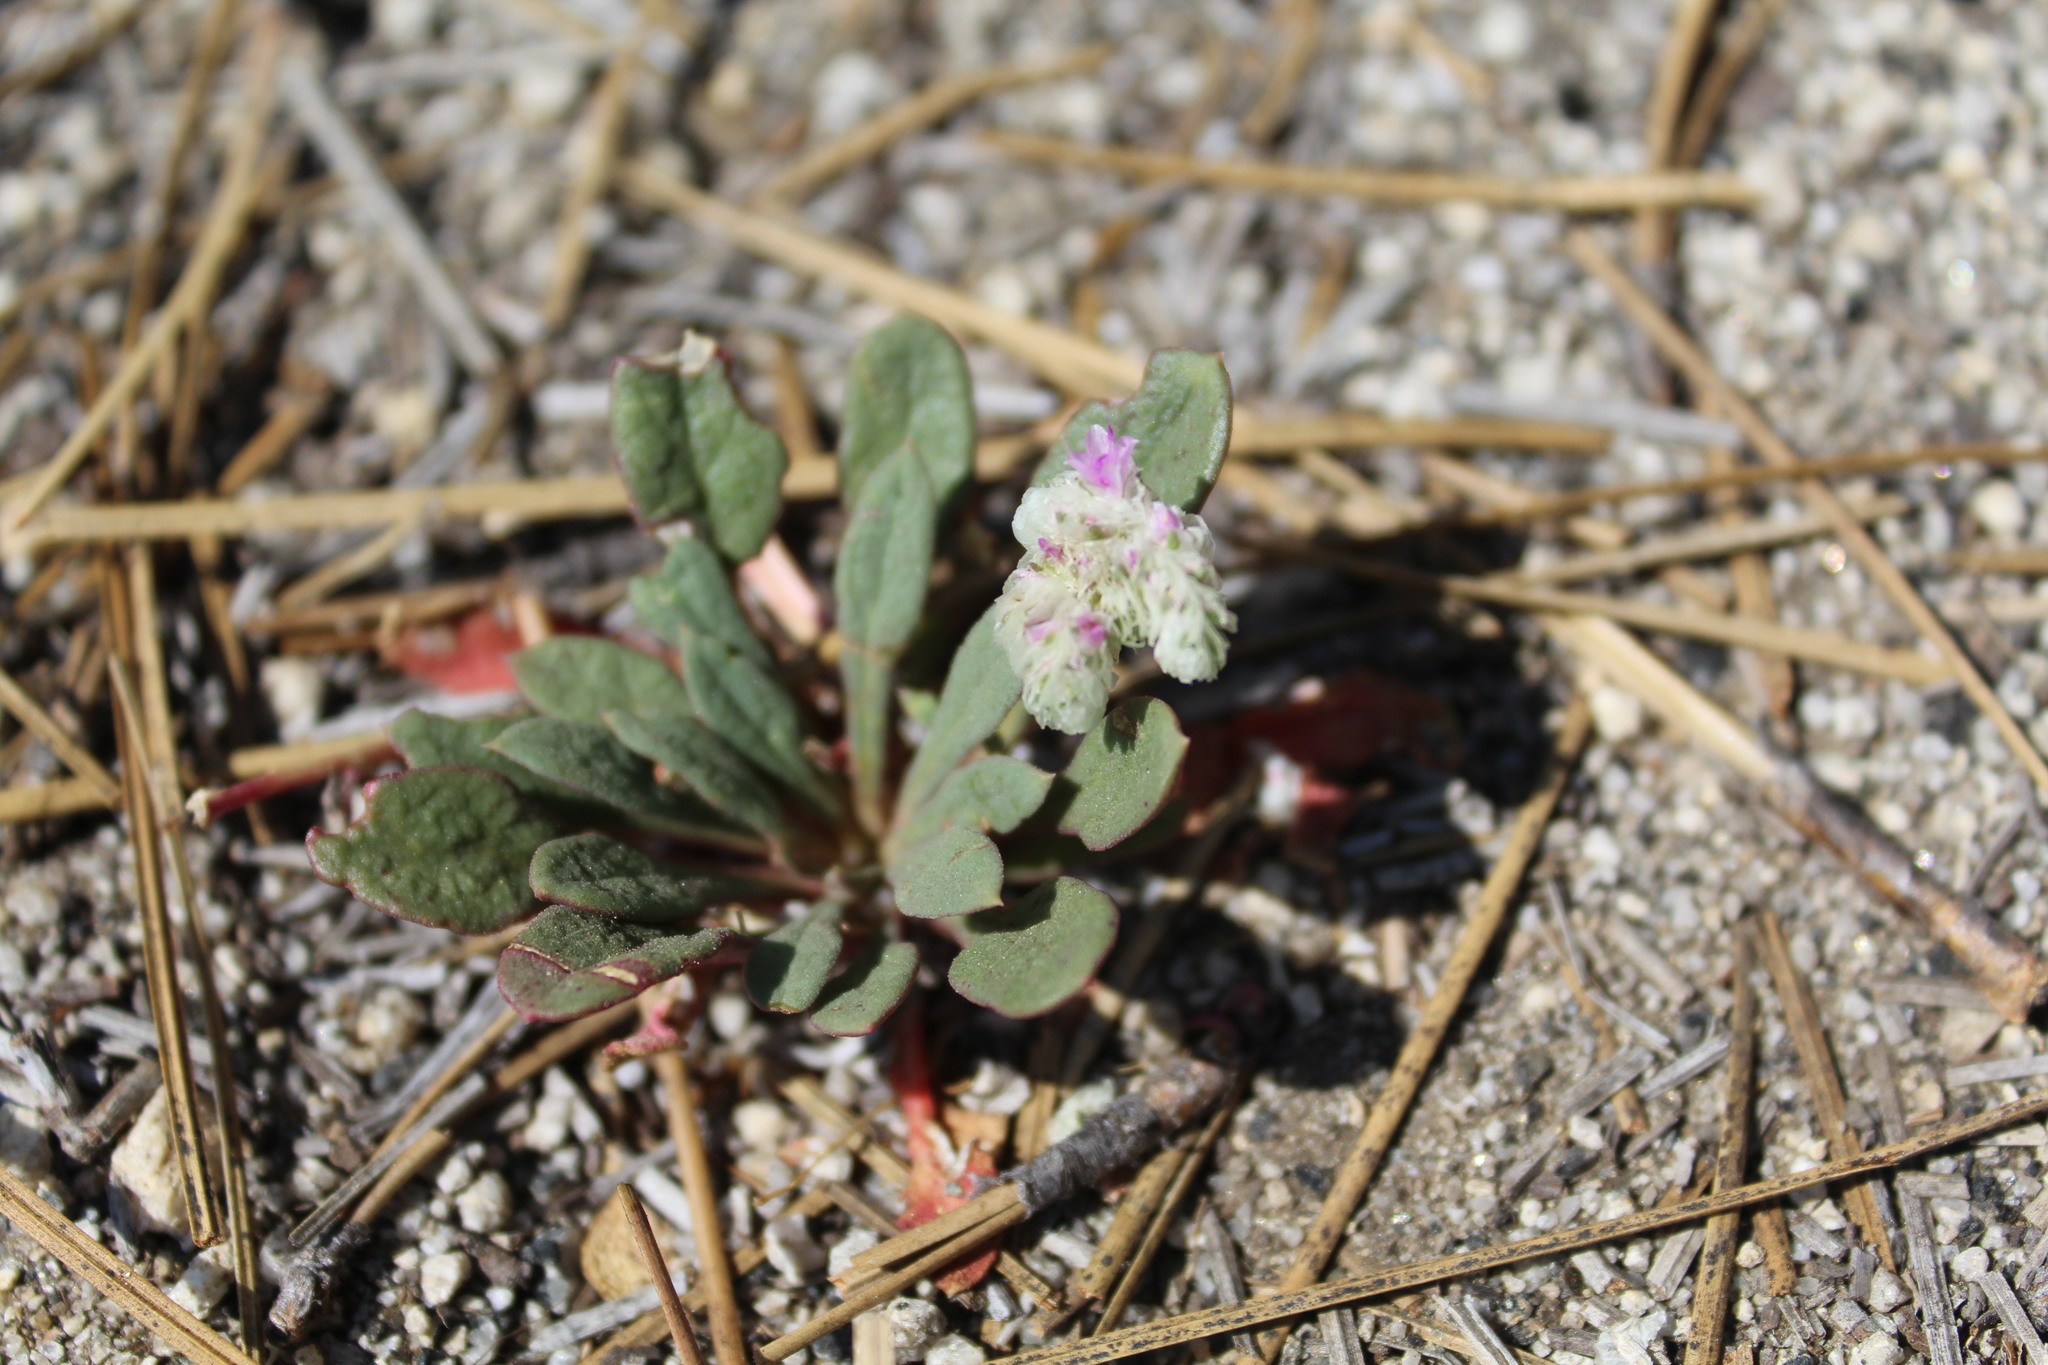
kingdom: Plantae
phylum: Tracheophyta
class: Magnoliopsida
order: Caryophyllales
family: Montiaceae
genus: Calyptridium
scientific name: Calyptridium monospermum
